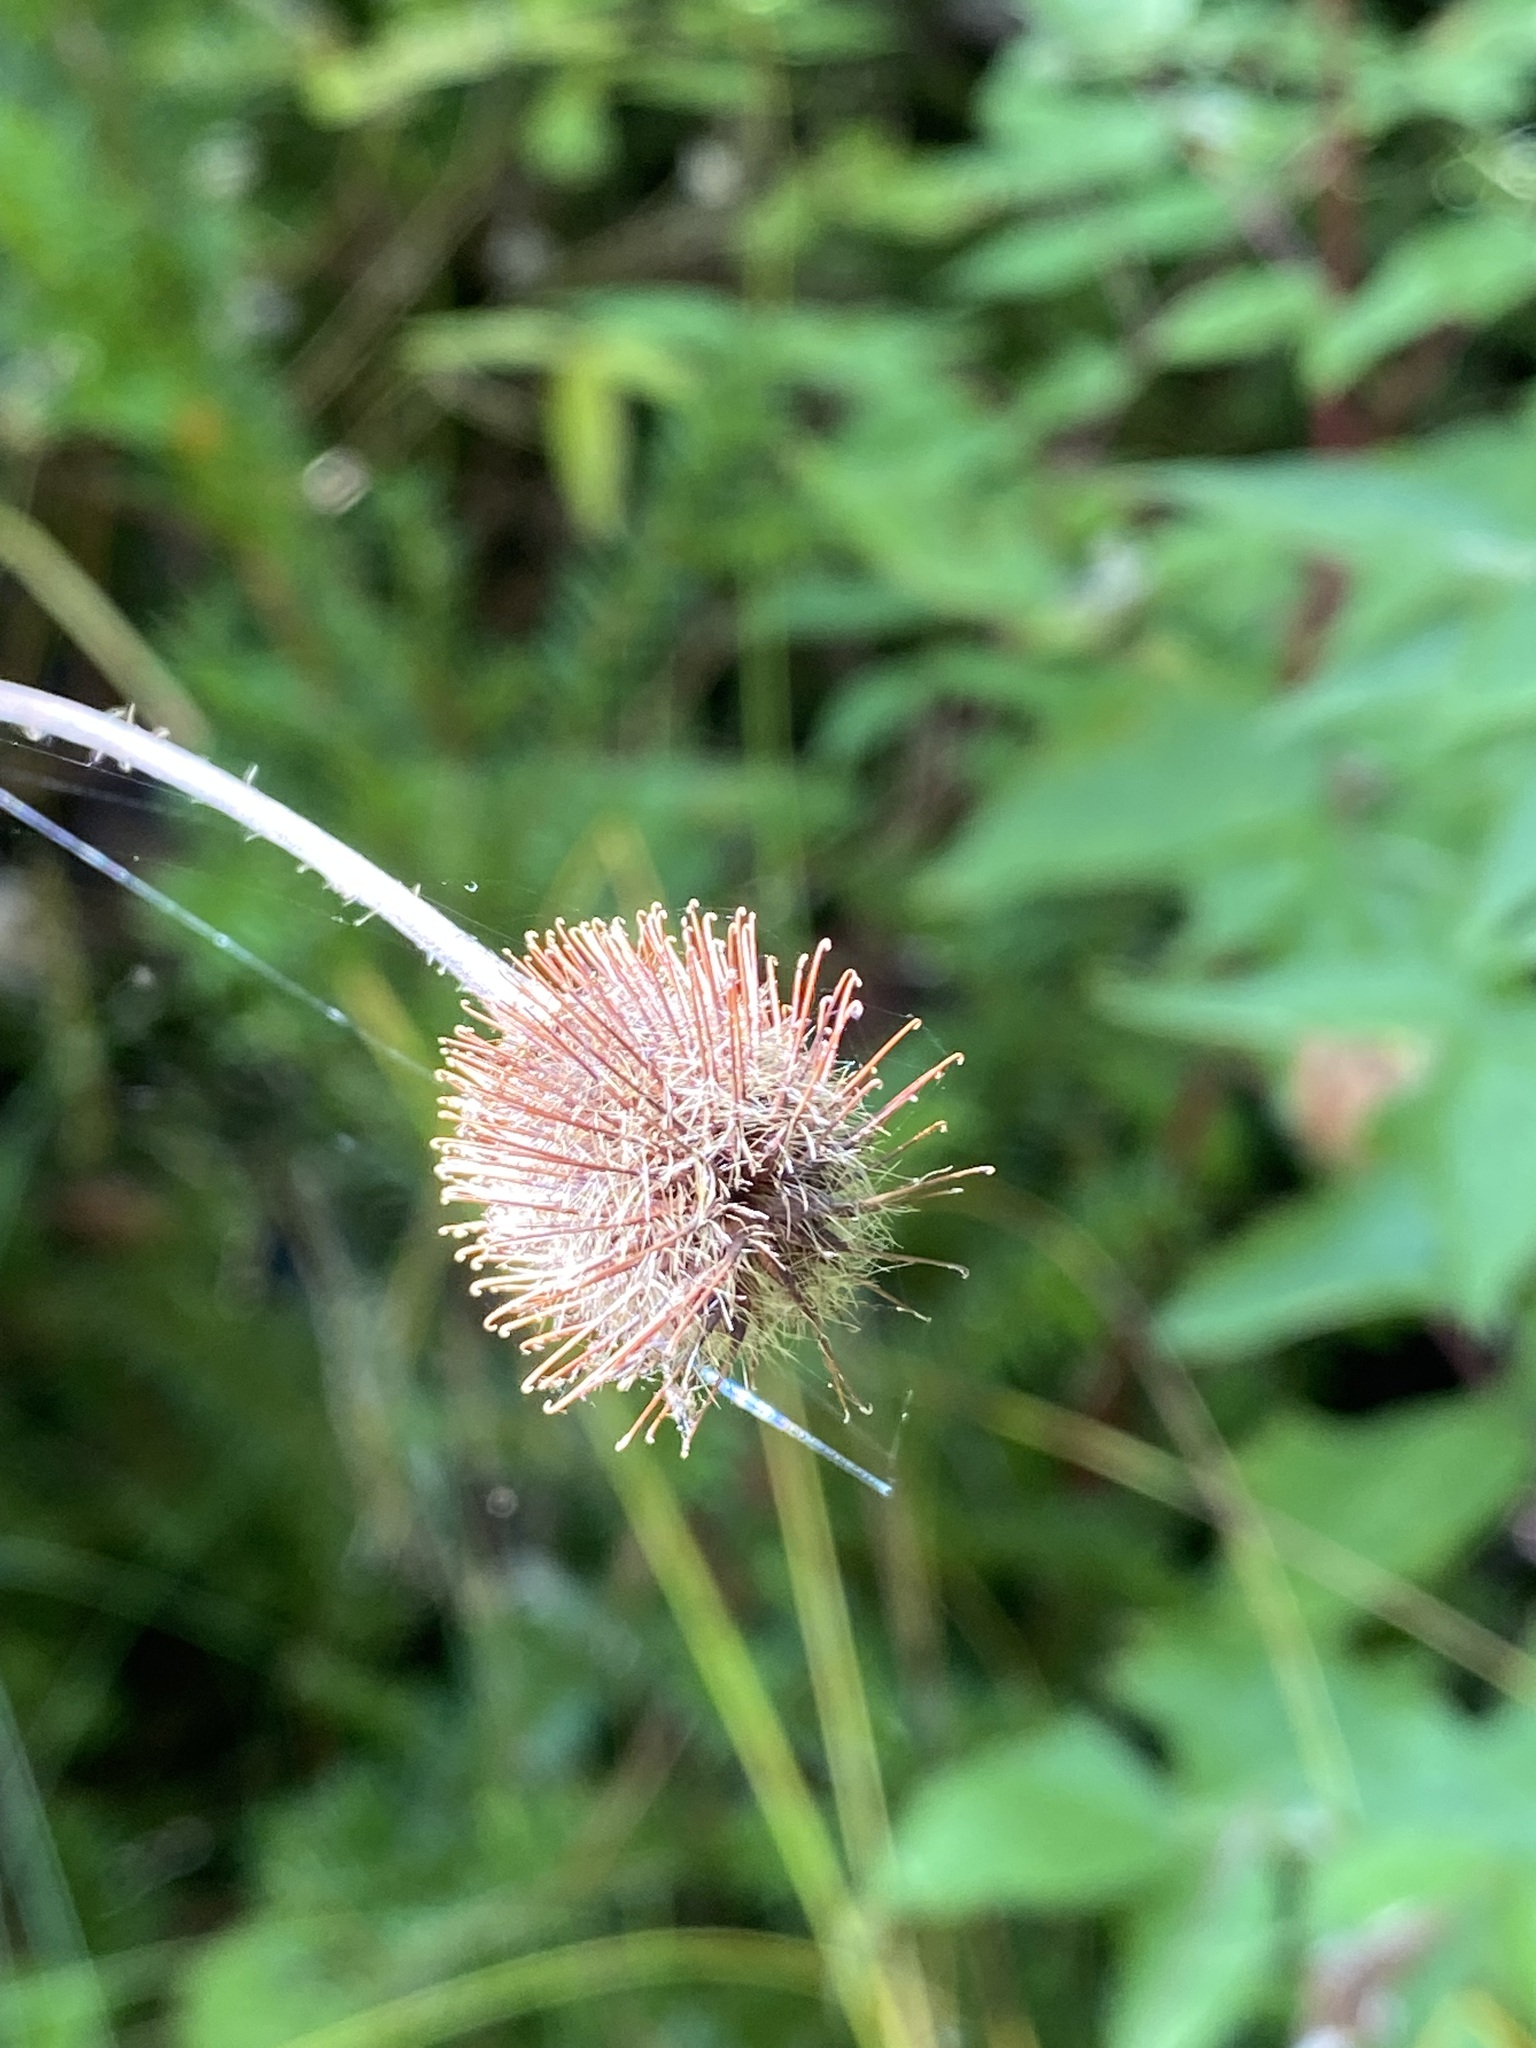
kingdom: Plantae
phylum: Tracheophyta
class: Magnoliopsida
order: Rosales
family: Rosaceae
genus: Geum
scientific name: Geum aleppicum
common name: Yellow avens
